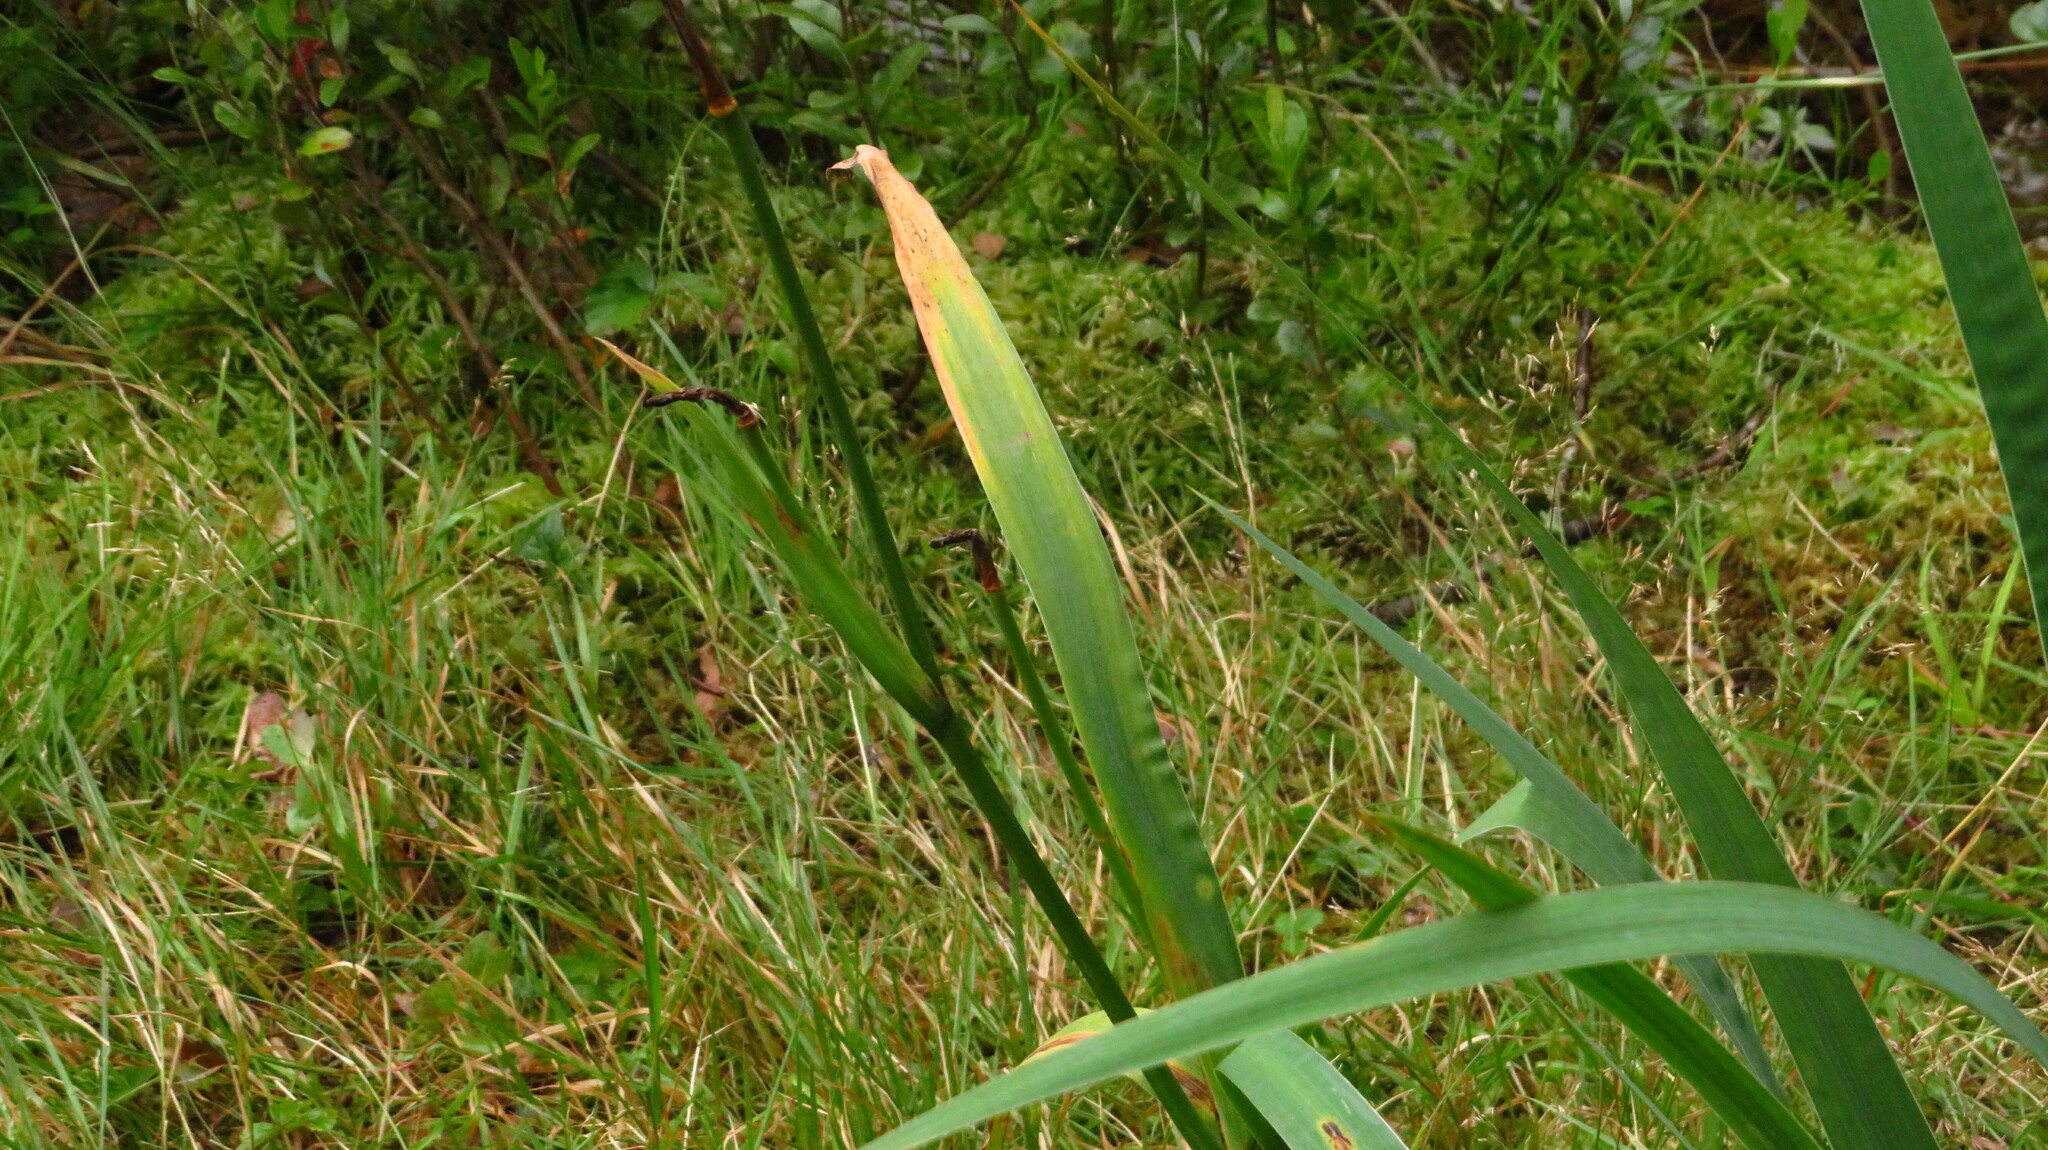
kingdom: Plantae
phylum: Tracheophyta
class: Liliopsida
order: Asparagales
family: Iridaceae
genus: Iris
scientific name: Iris versicolor
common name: Purple iris
